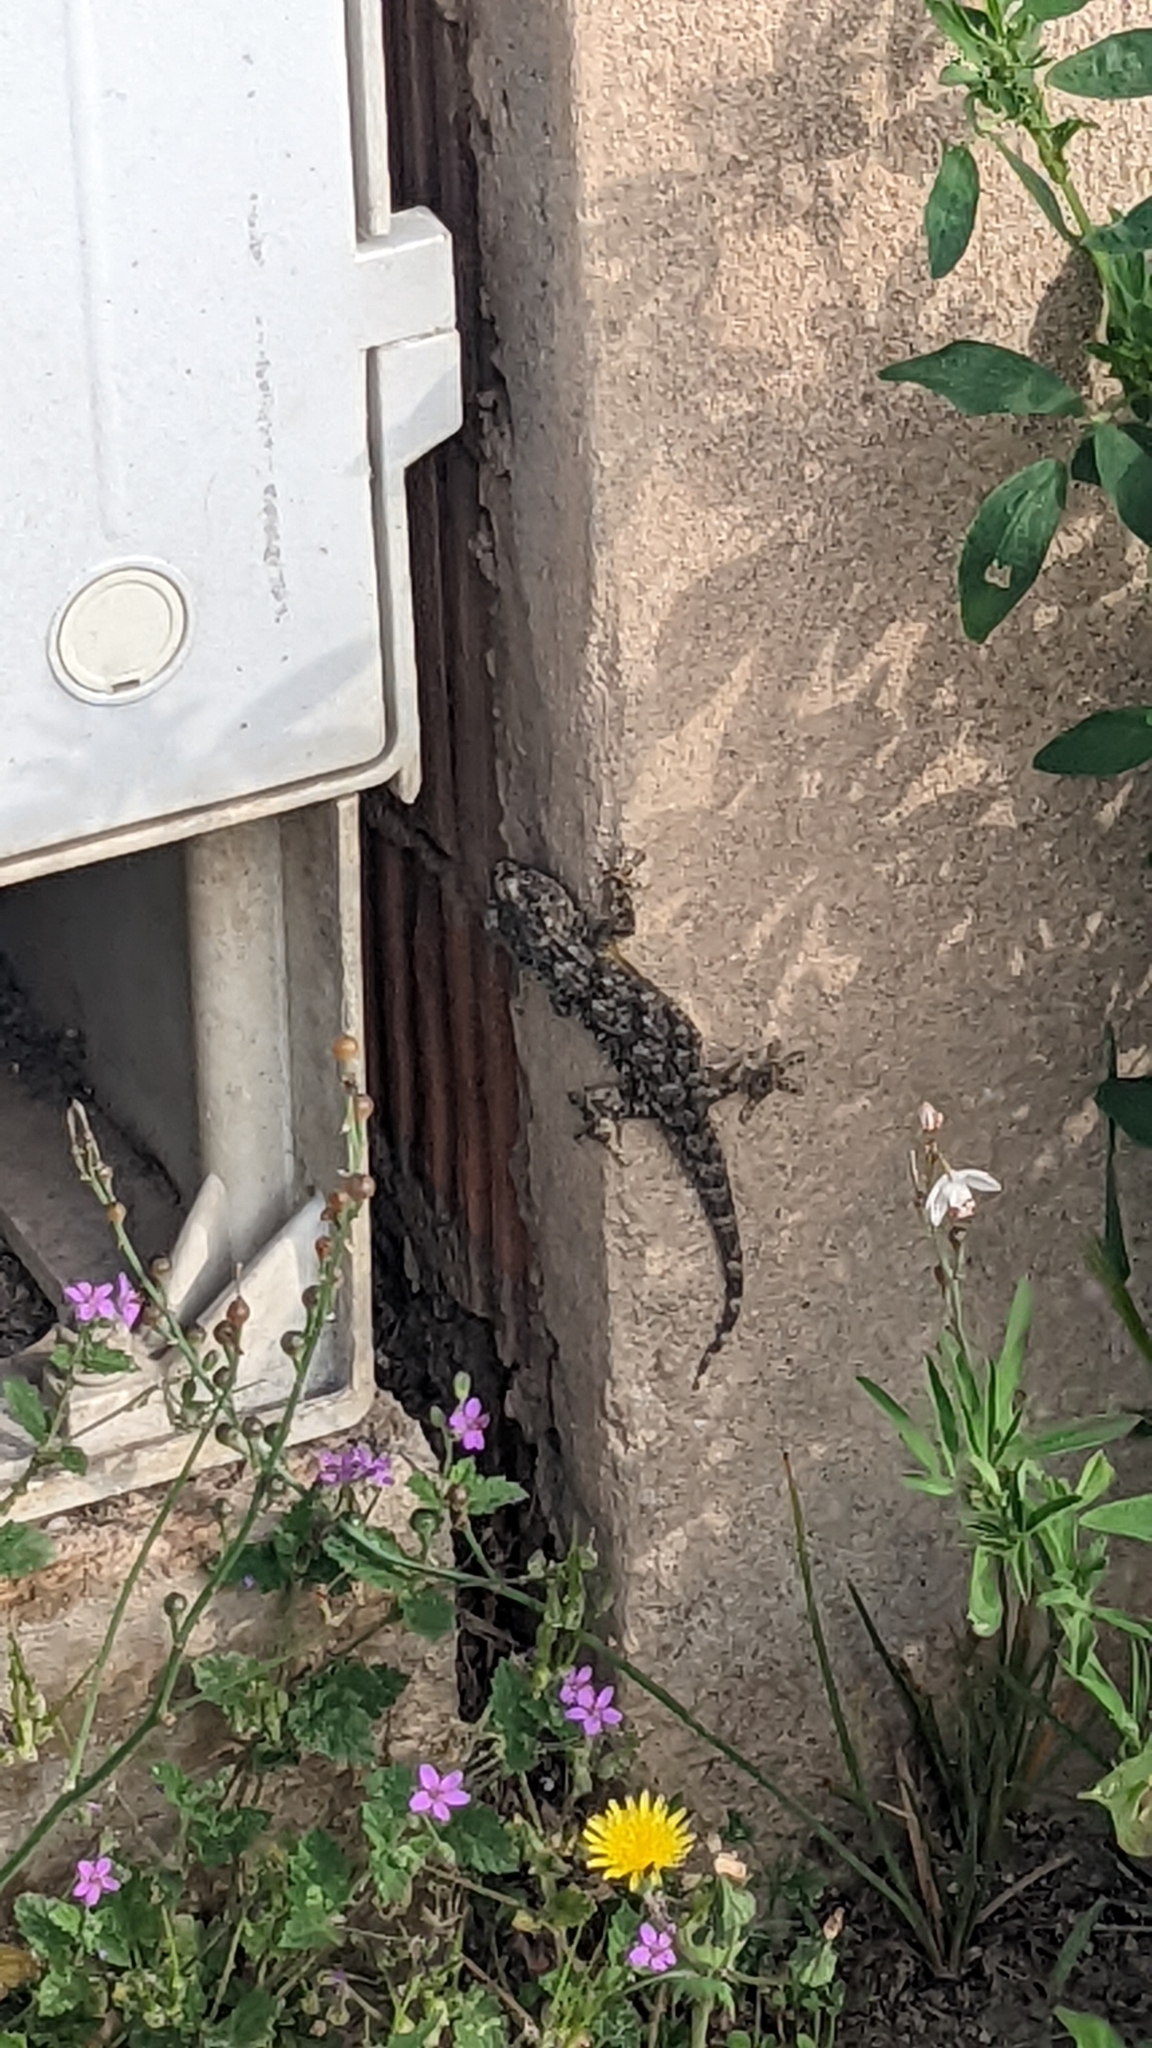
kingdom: Animalia
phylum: Chordata
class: Squamata
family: Phyllodactylidae
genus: Tarentola
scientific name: Tarentola mauritanica
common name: Moorish gecko
